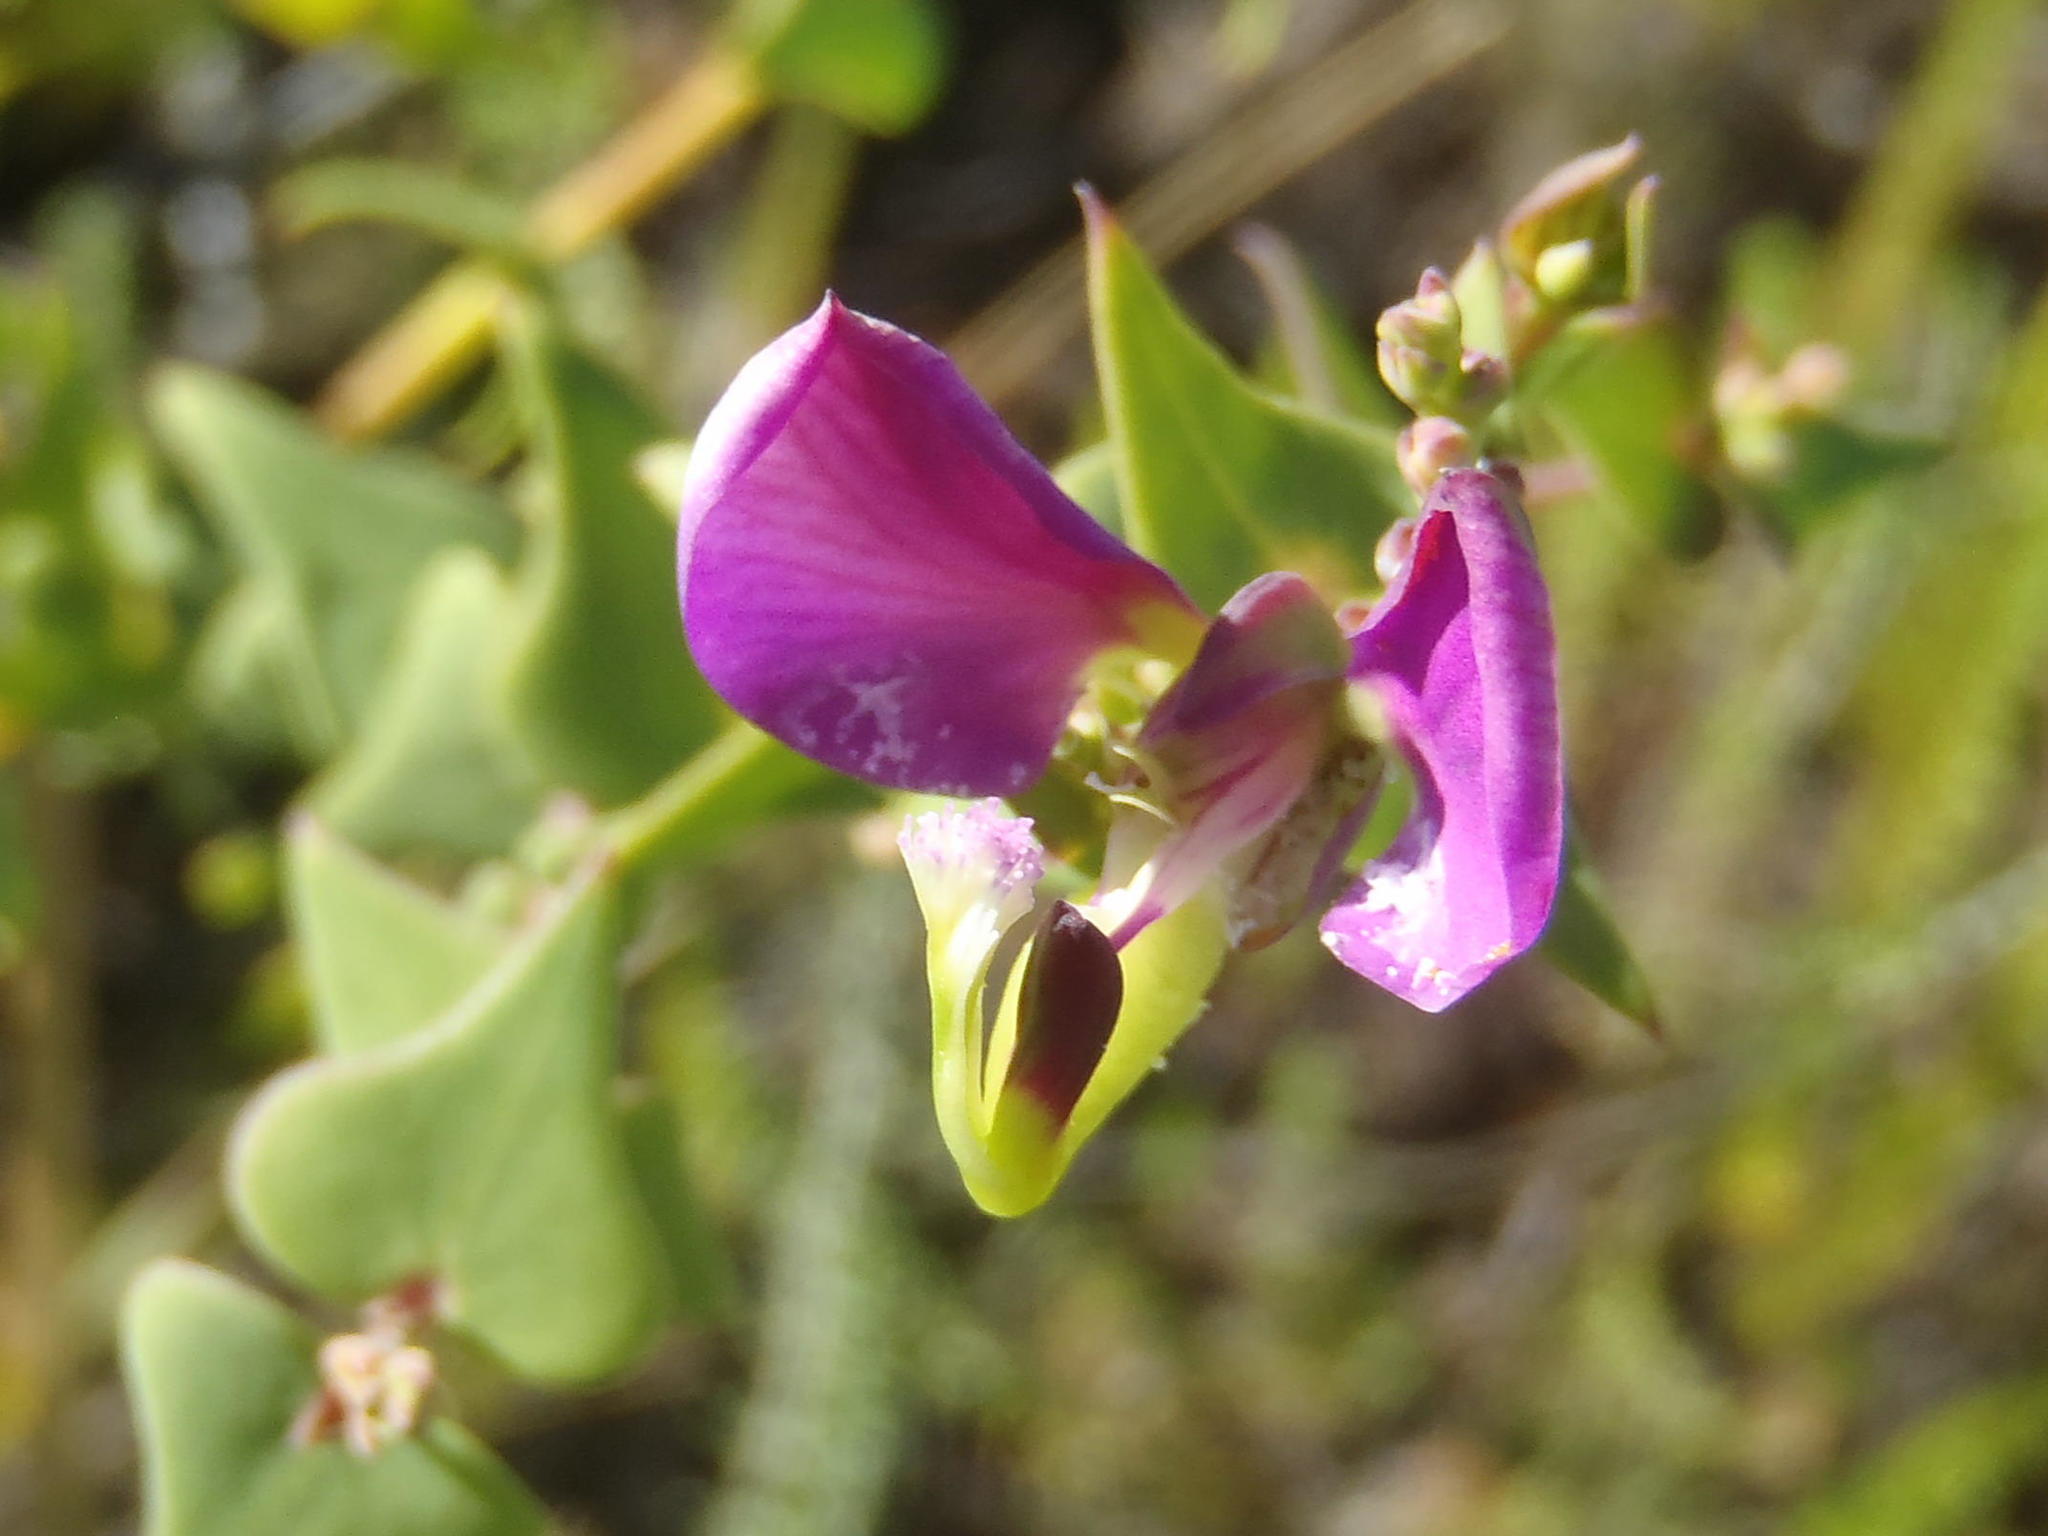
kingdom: Plantae
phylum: Tracheophyta
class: Magnoliopsida
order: Fabales
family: Polygalaceae
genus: Polygala
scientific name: Polygala fruticosa
